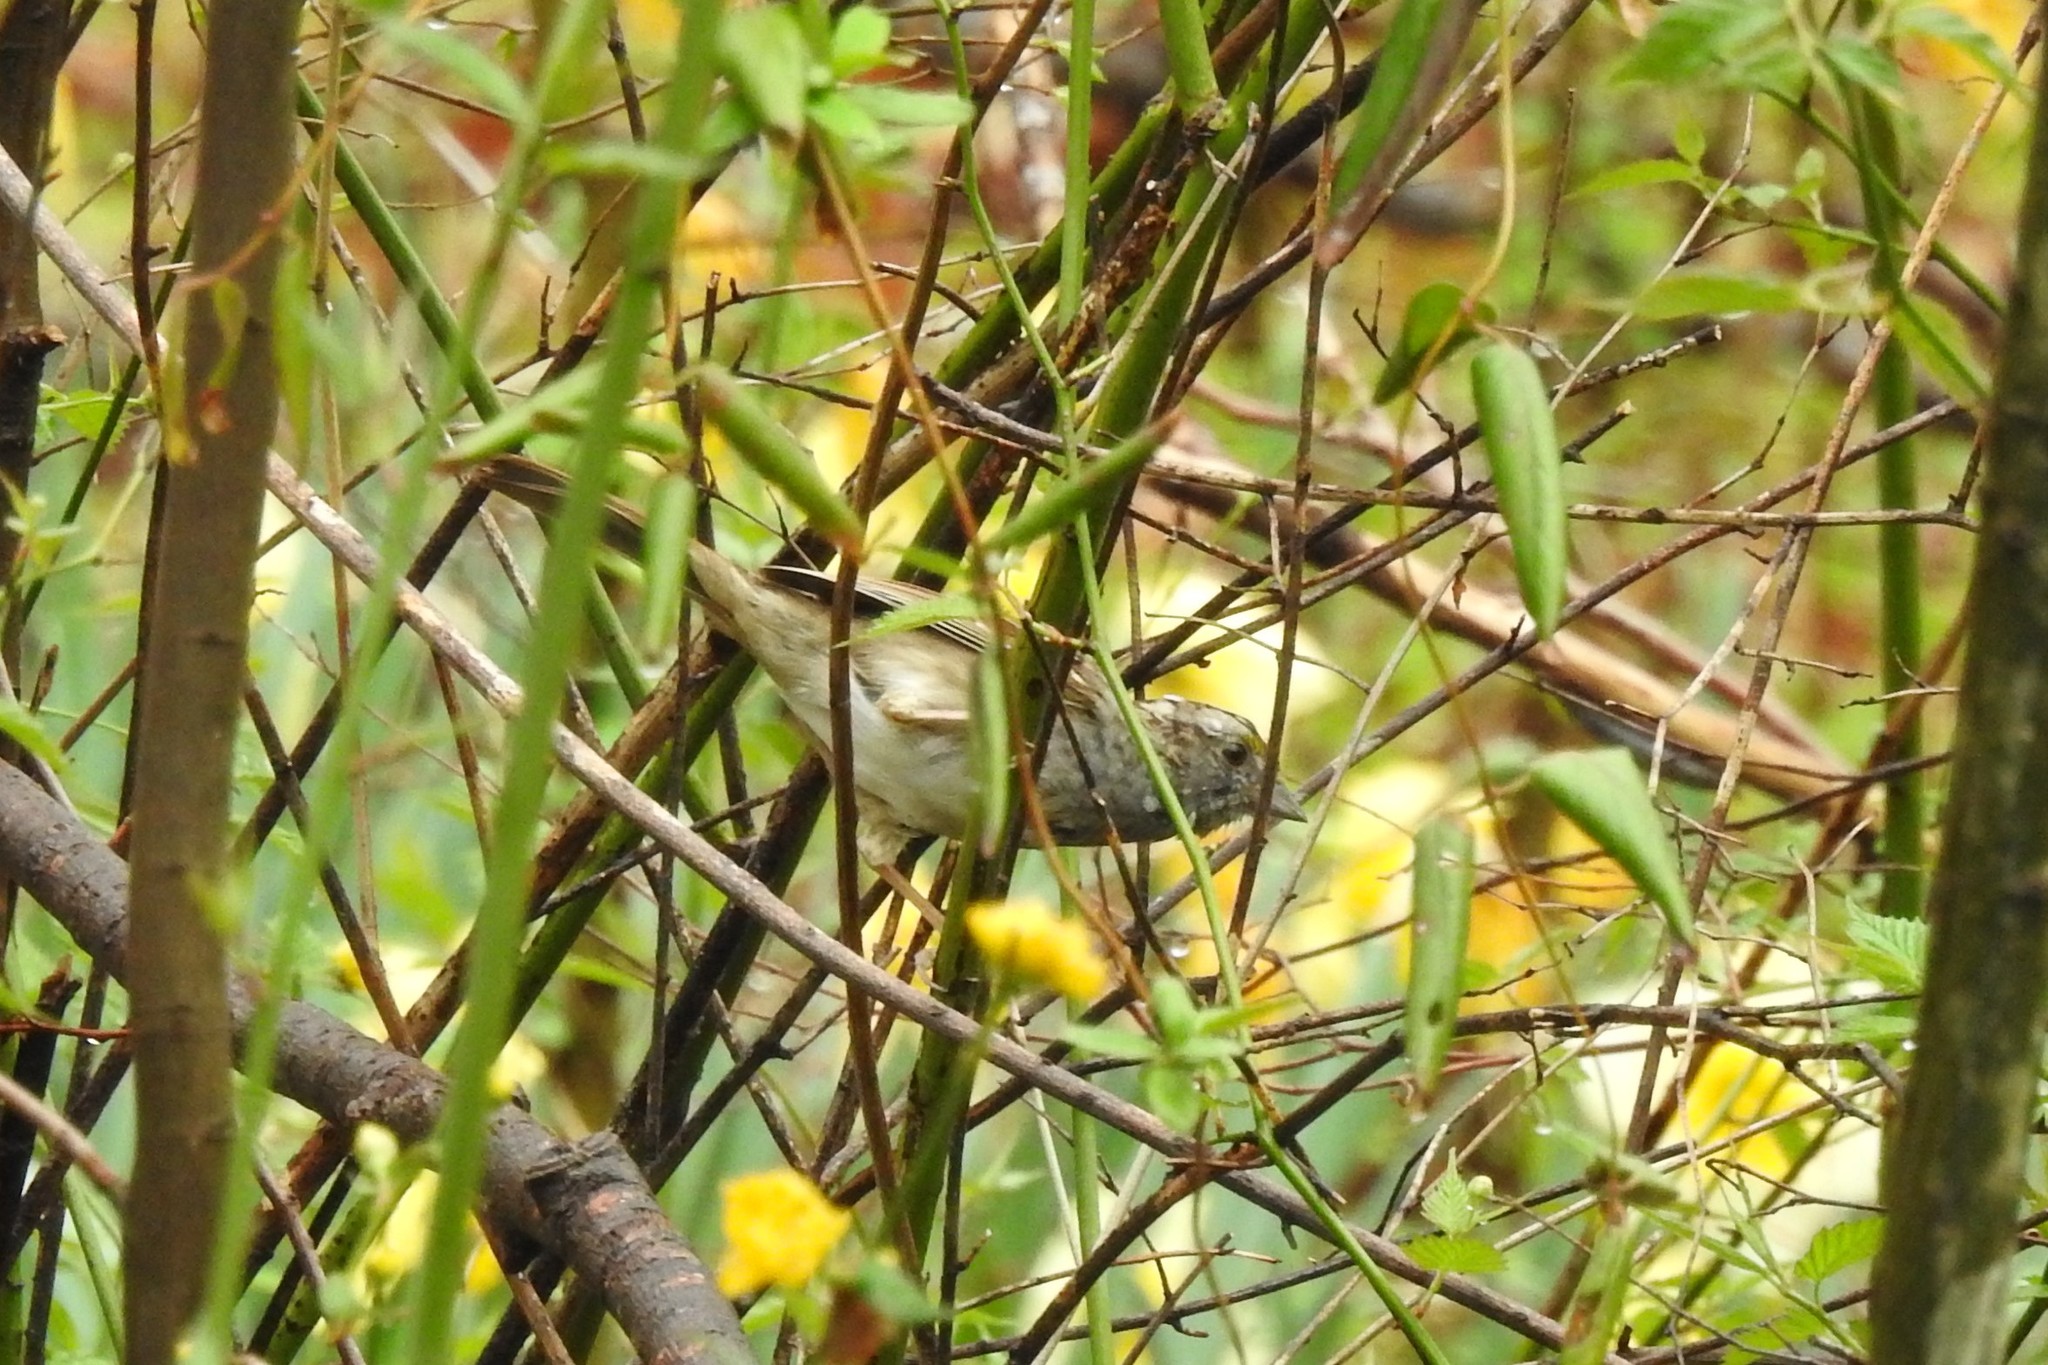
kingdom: Animalia
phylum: Chordata
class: Aves
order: Passeriformes
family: Passerellidae
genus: Zonotrichia
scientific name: Zonotrichia albicollis
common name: White-throated sparrow
